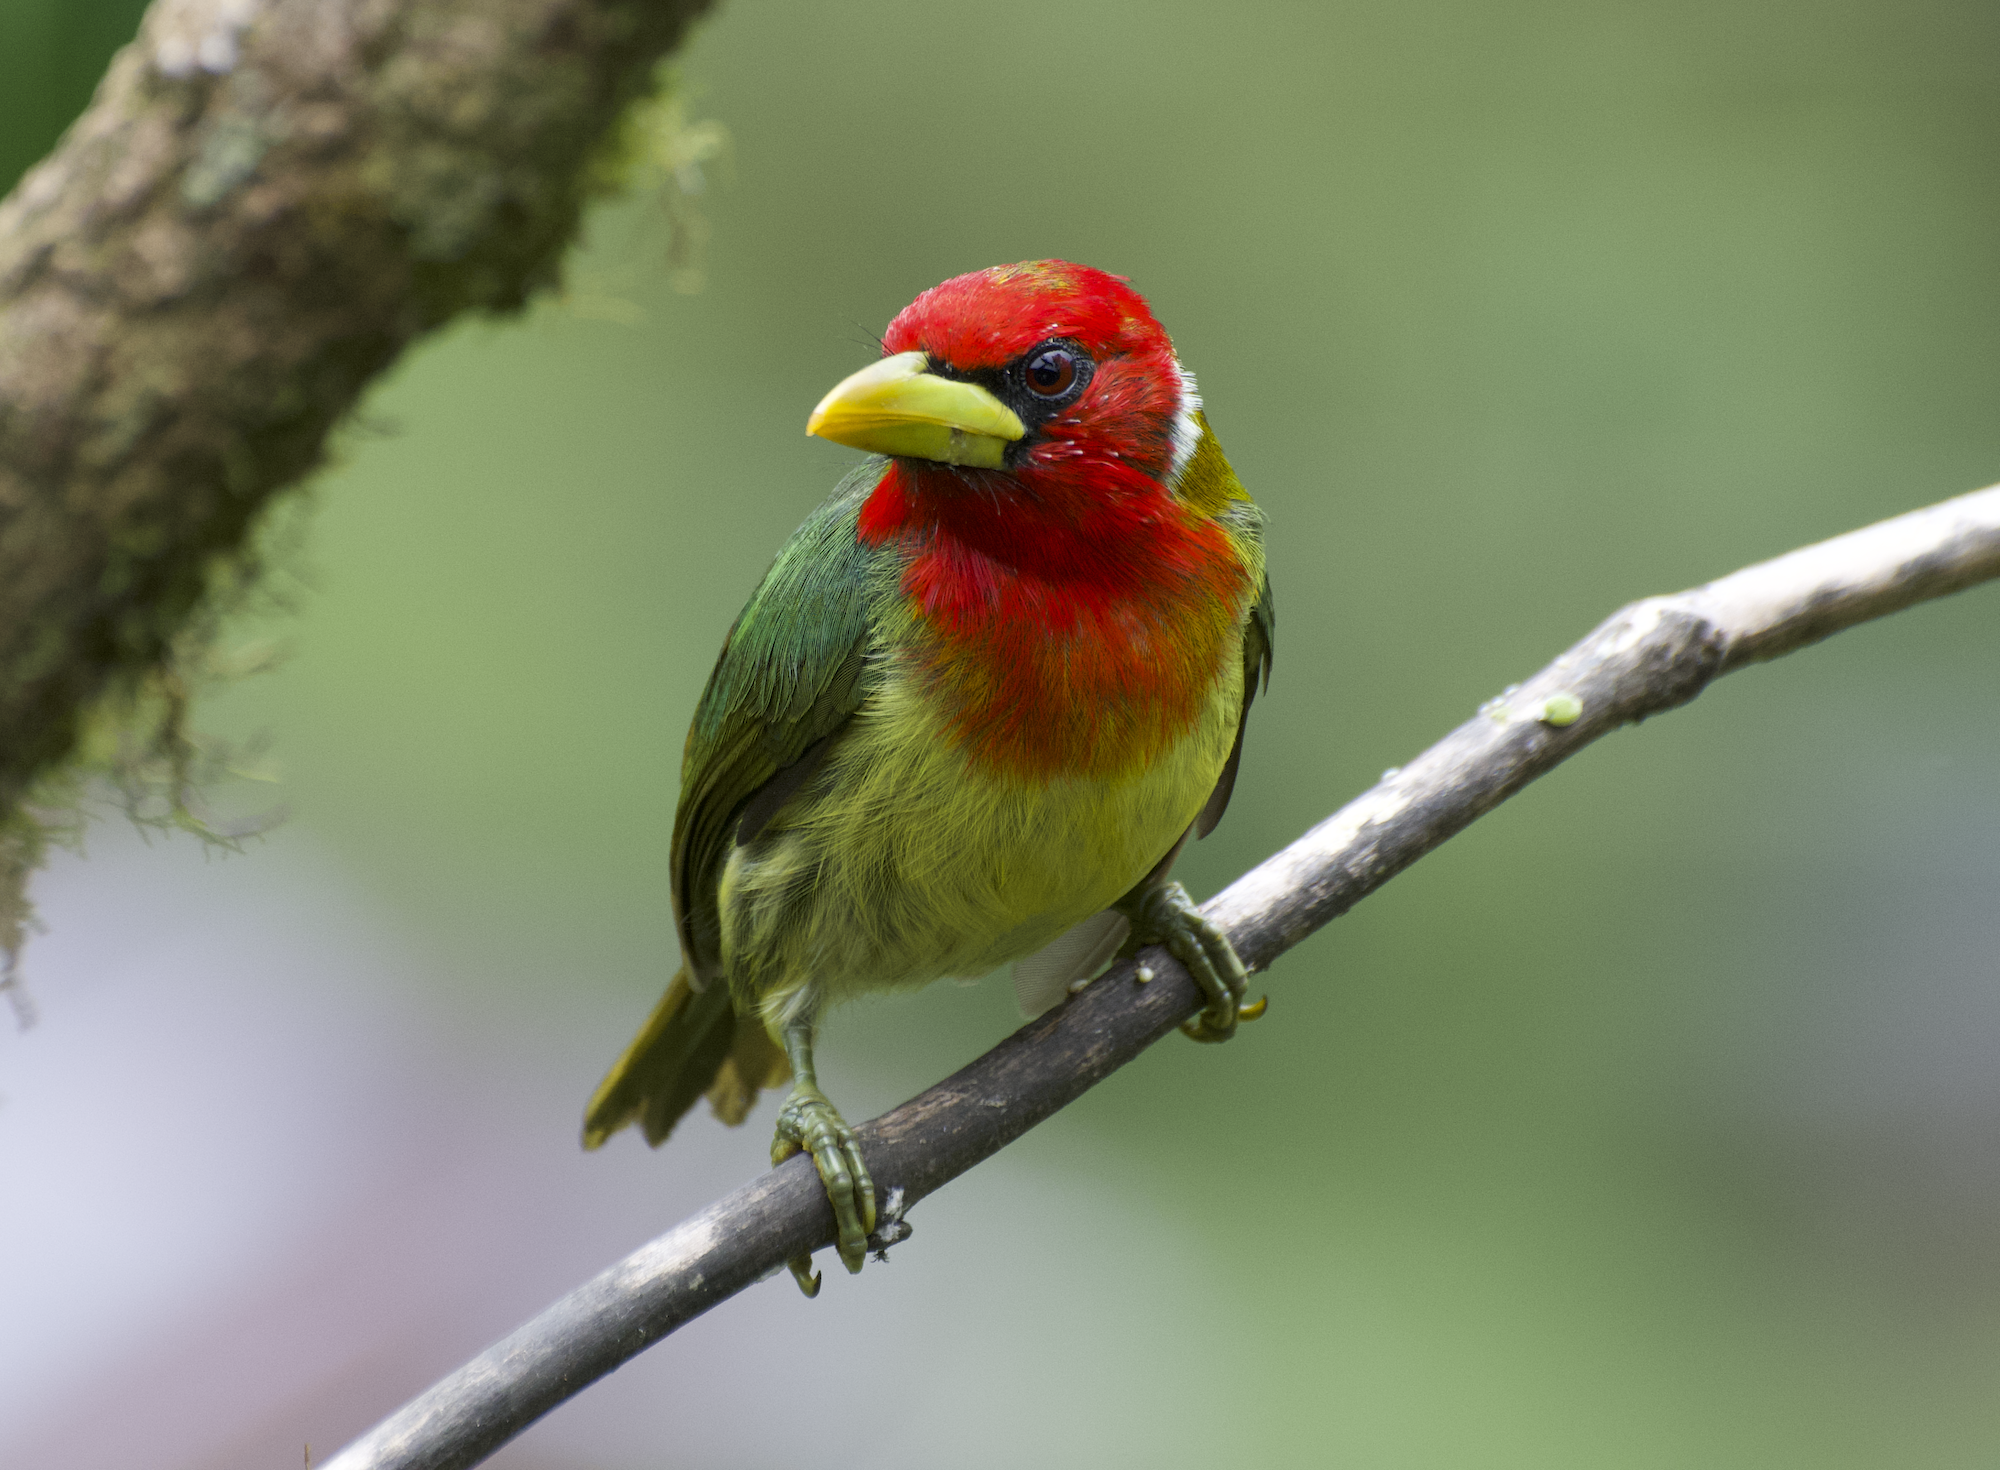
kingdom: Animalia
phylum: Chordata
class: Aves
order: Piciformes
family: Capitonidae
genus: Eubucco
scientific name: Eubucco bourcierii
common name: Red-headed barbet
